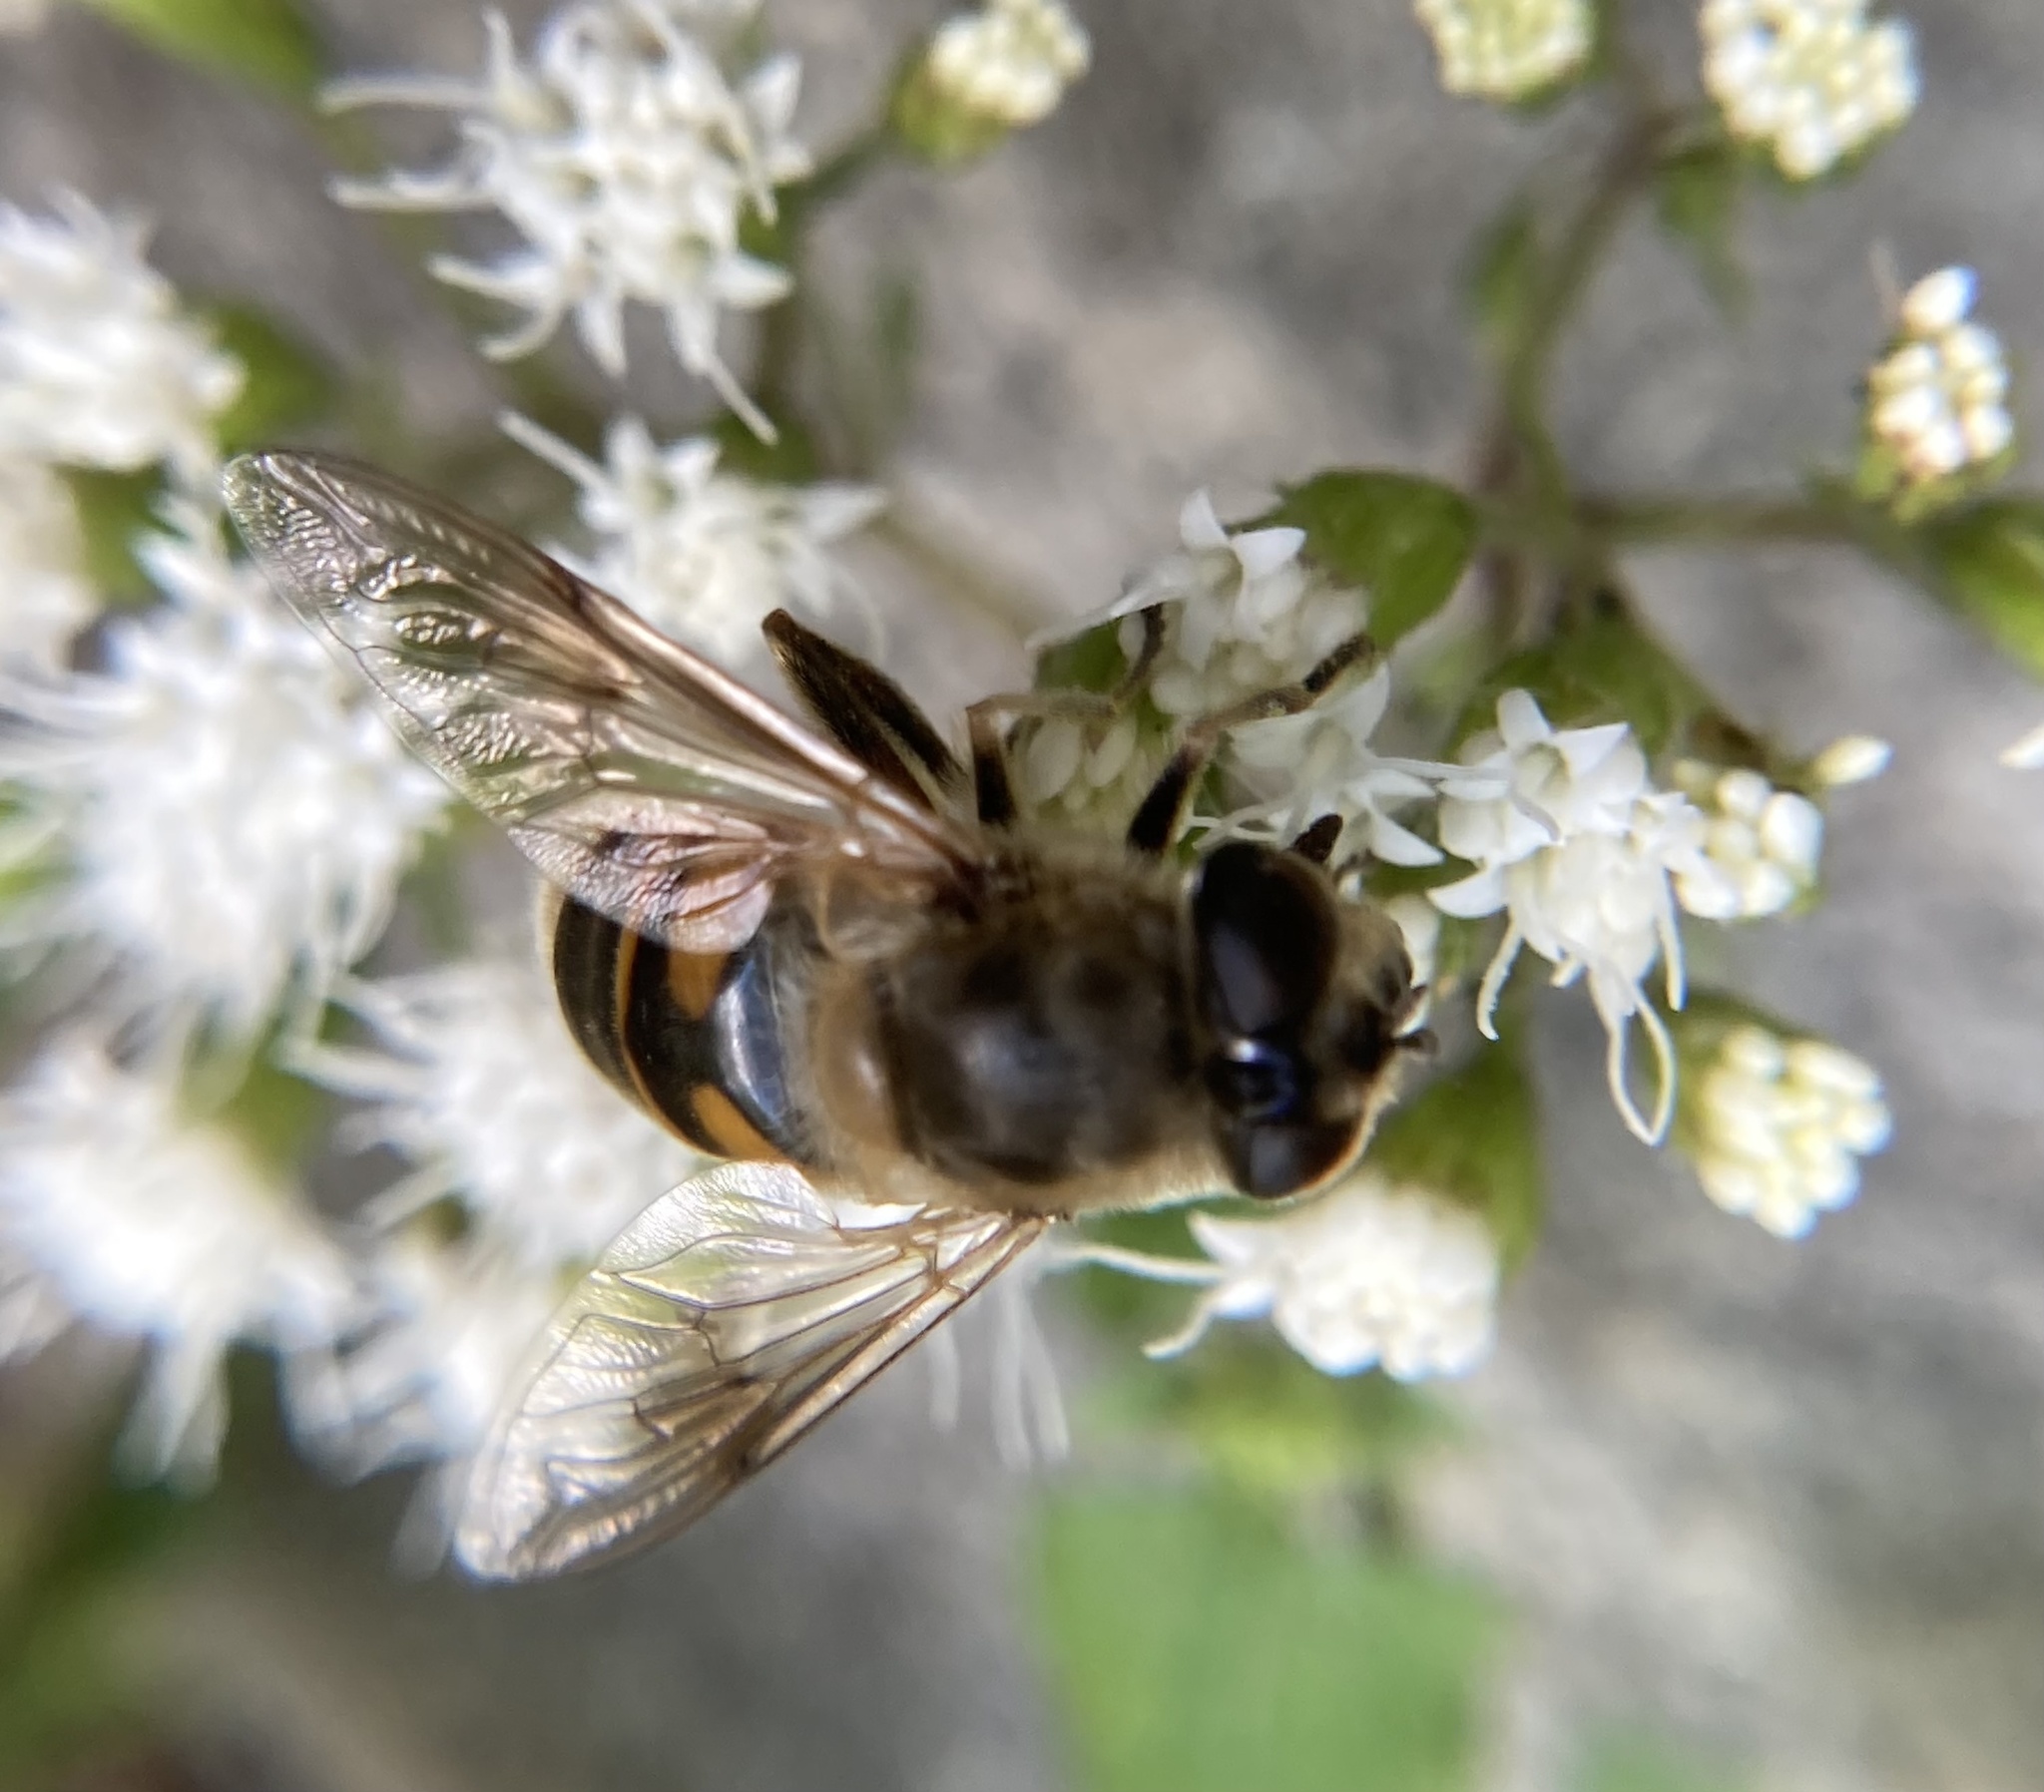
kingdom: Animalia
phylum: Arthropoda
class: Insecta
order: Diptera
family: Syrphidae
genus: Eristalis
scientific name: Eristalis tenax
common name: Drone fly
